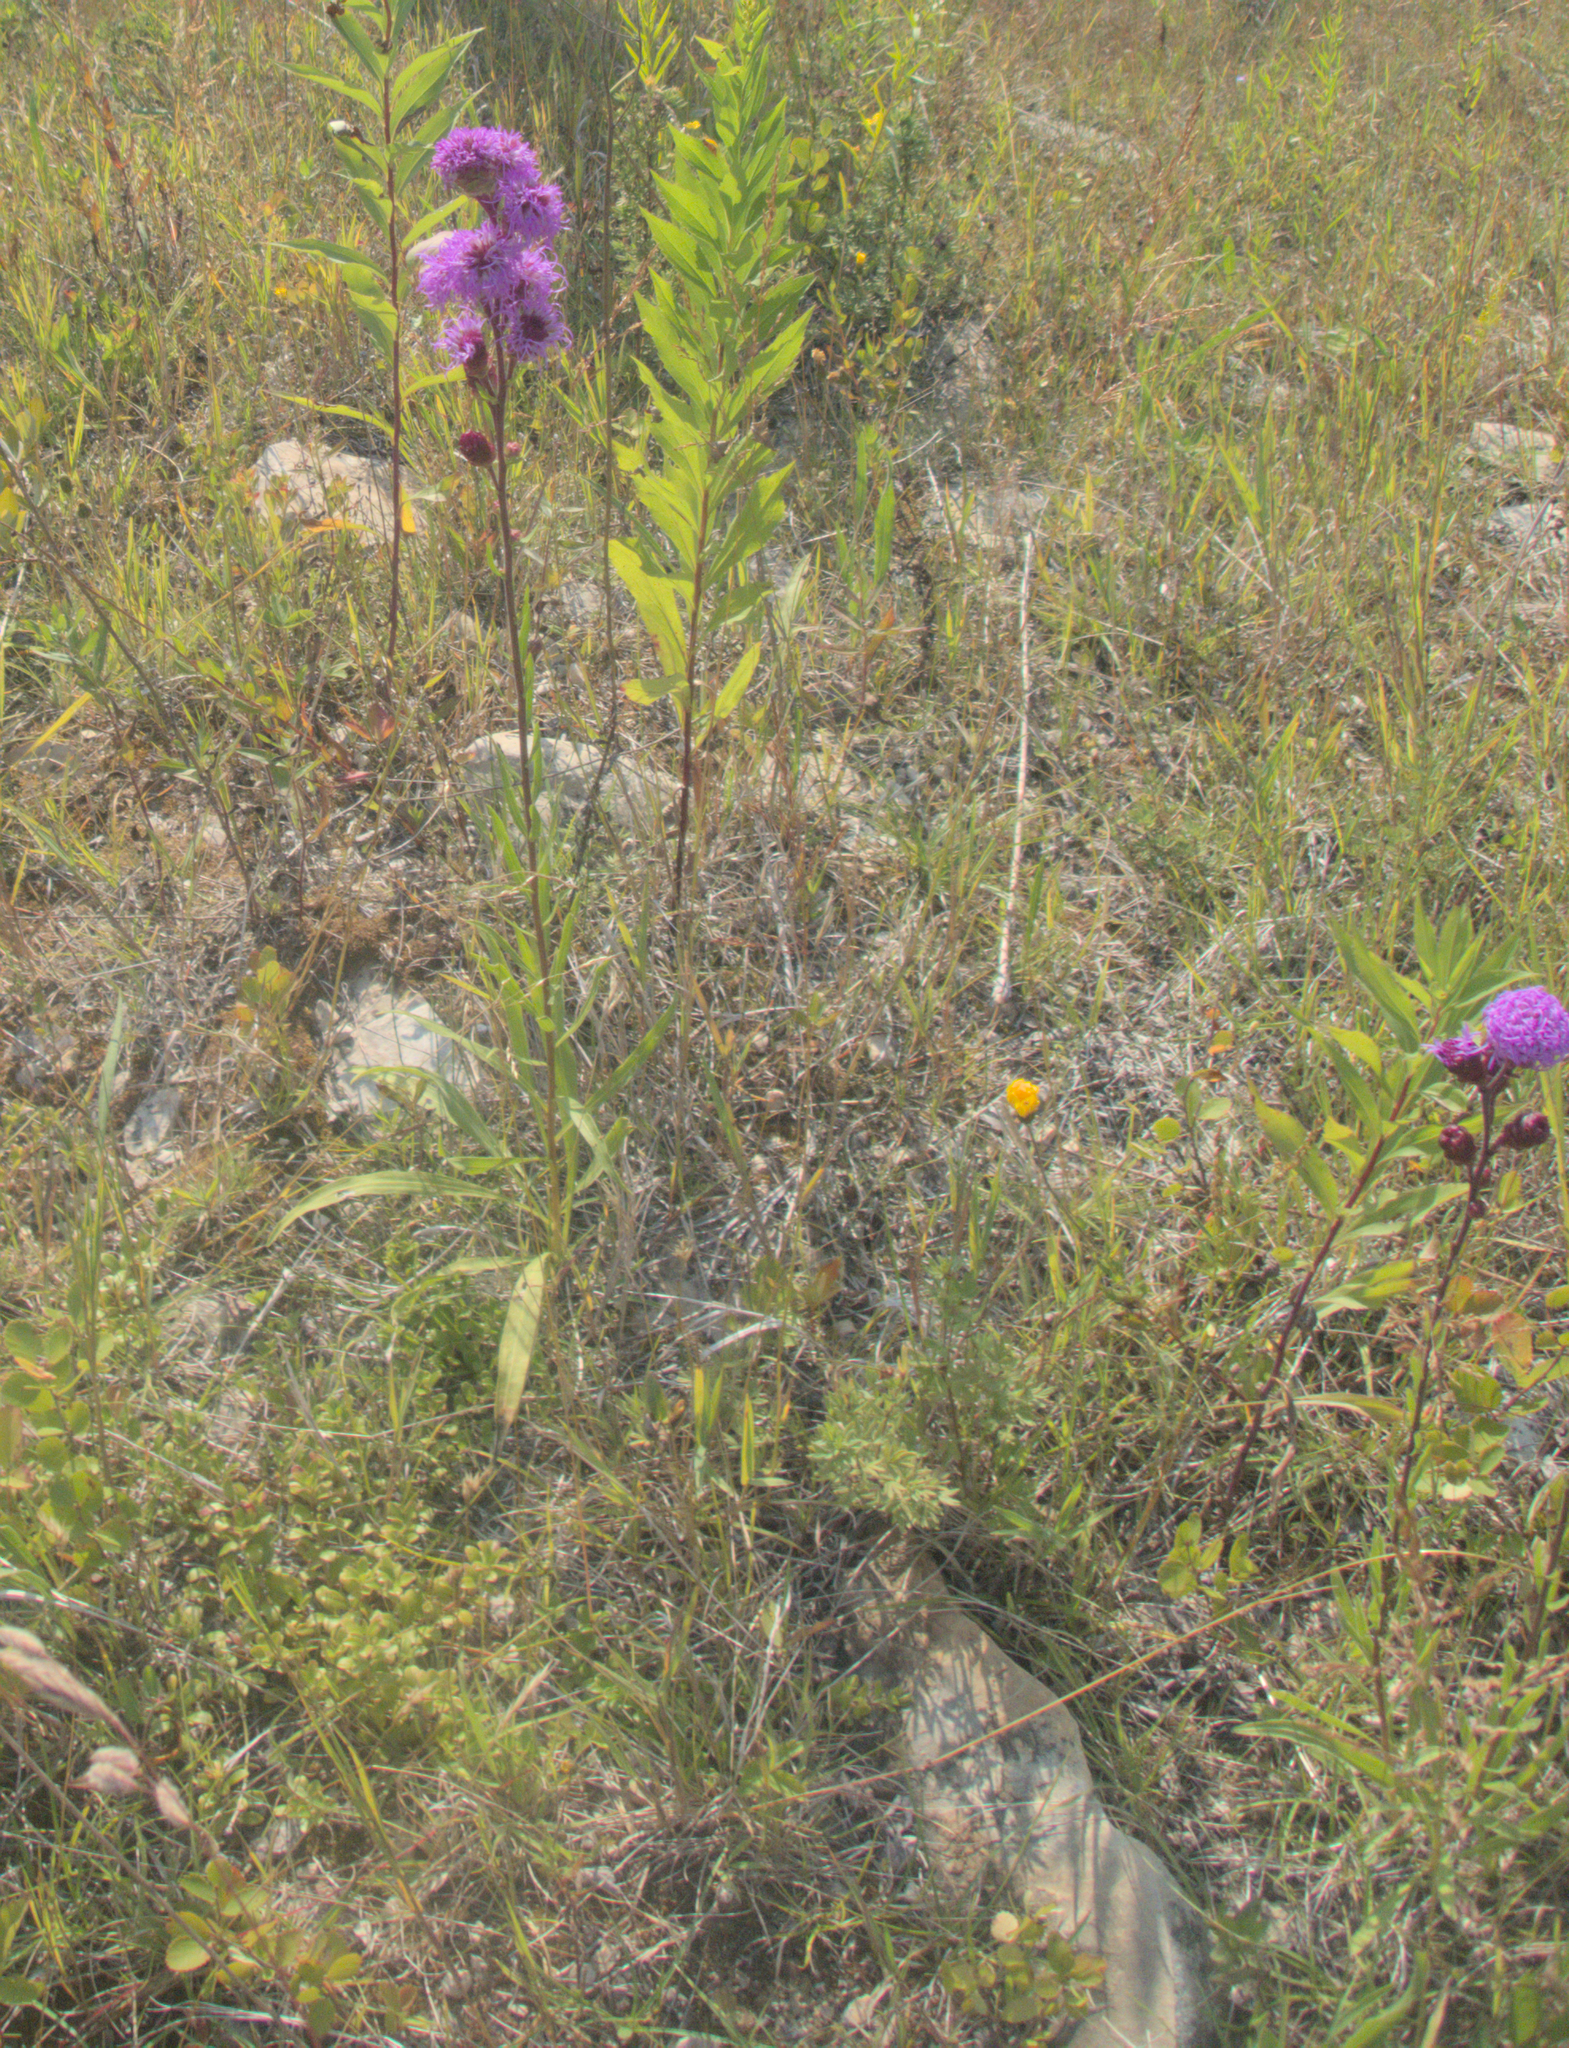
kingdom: Plantae
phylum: Tracheophyta
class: Magnoliopsida
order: Asterales
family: Asteraceae
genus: Liatris
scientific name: Liatris ligulistylis
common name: Northern plains gayfeather
